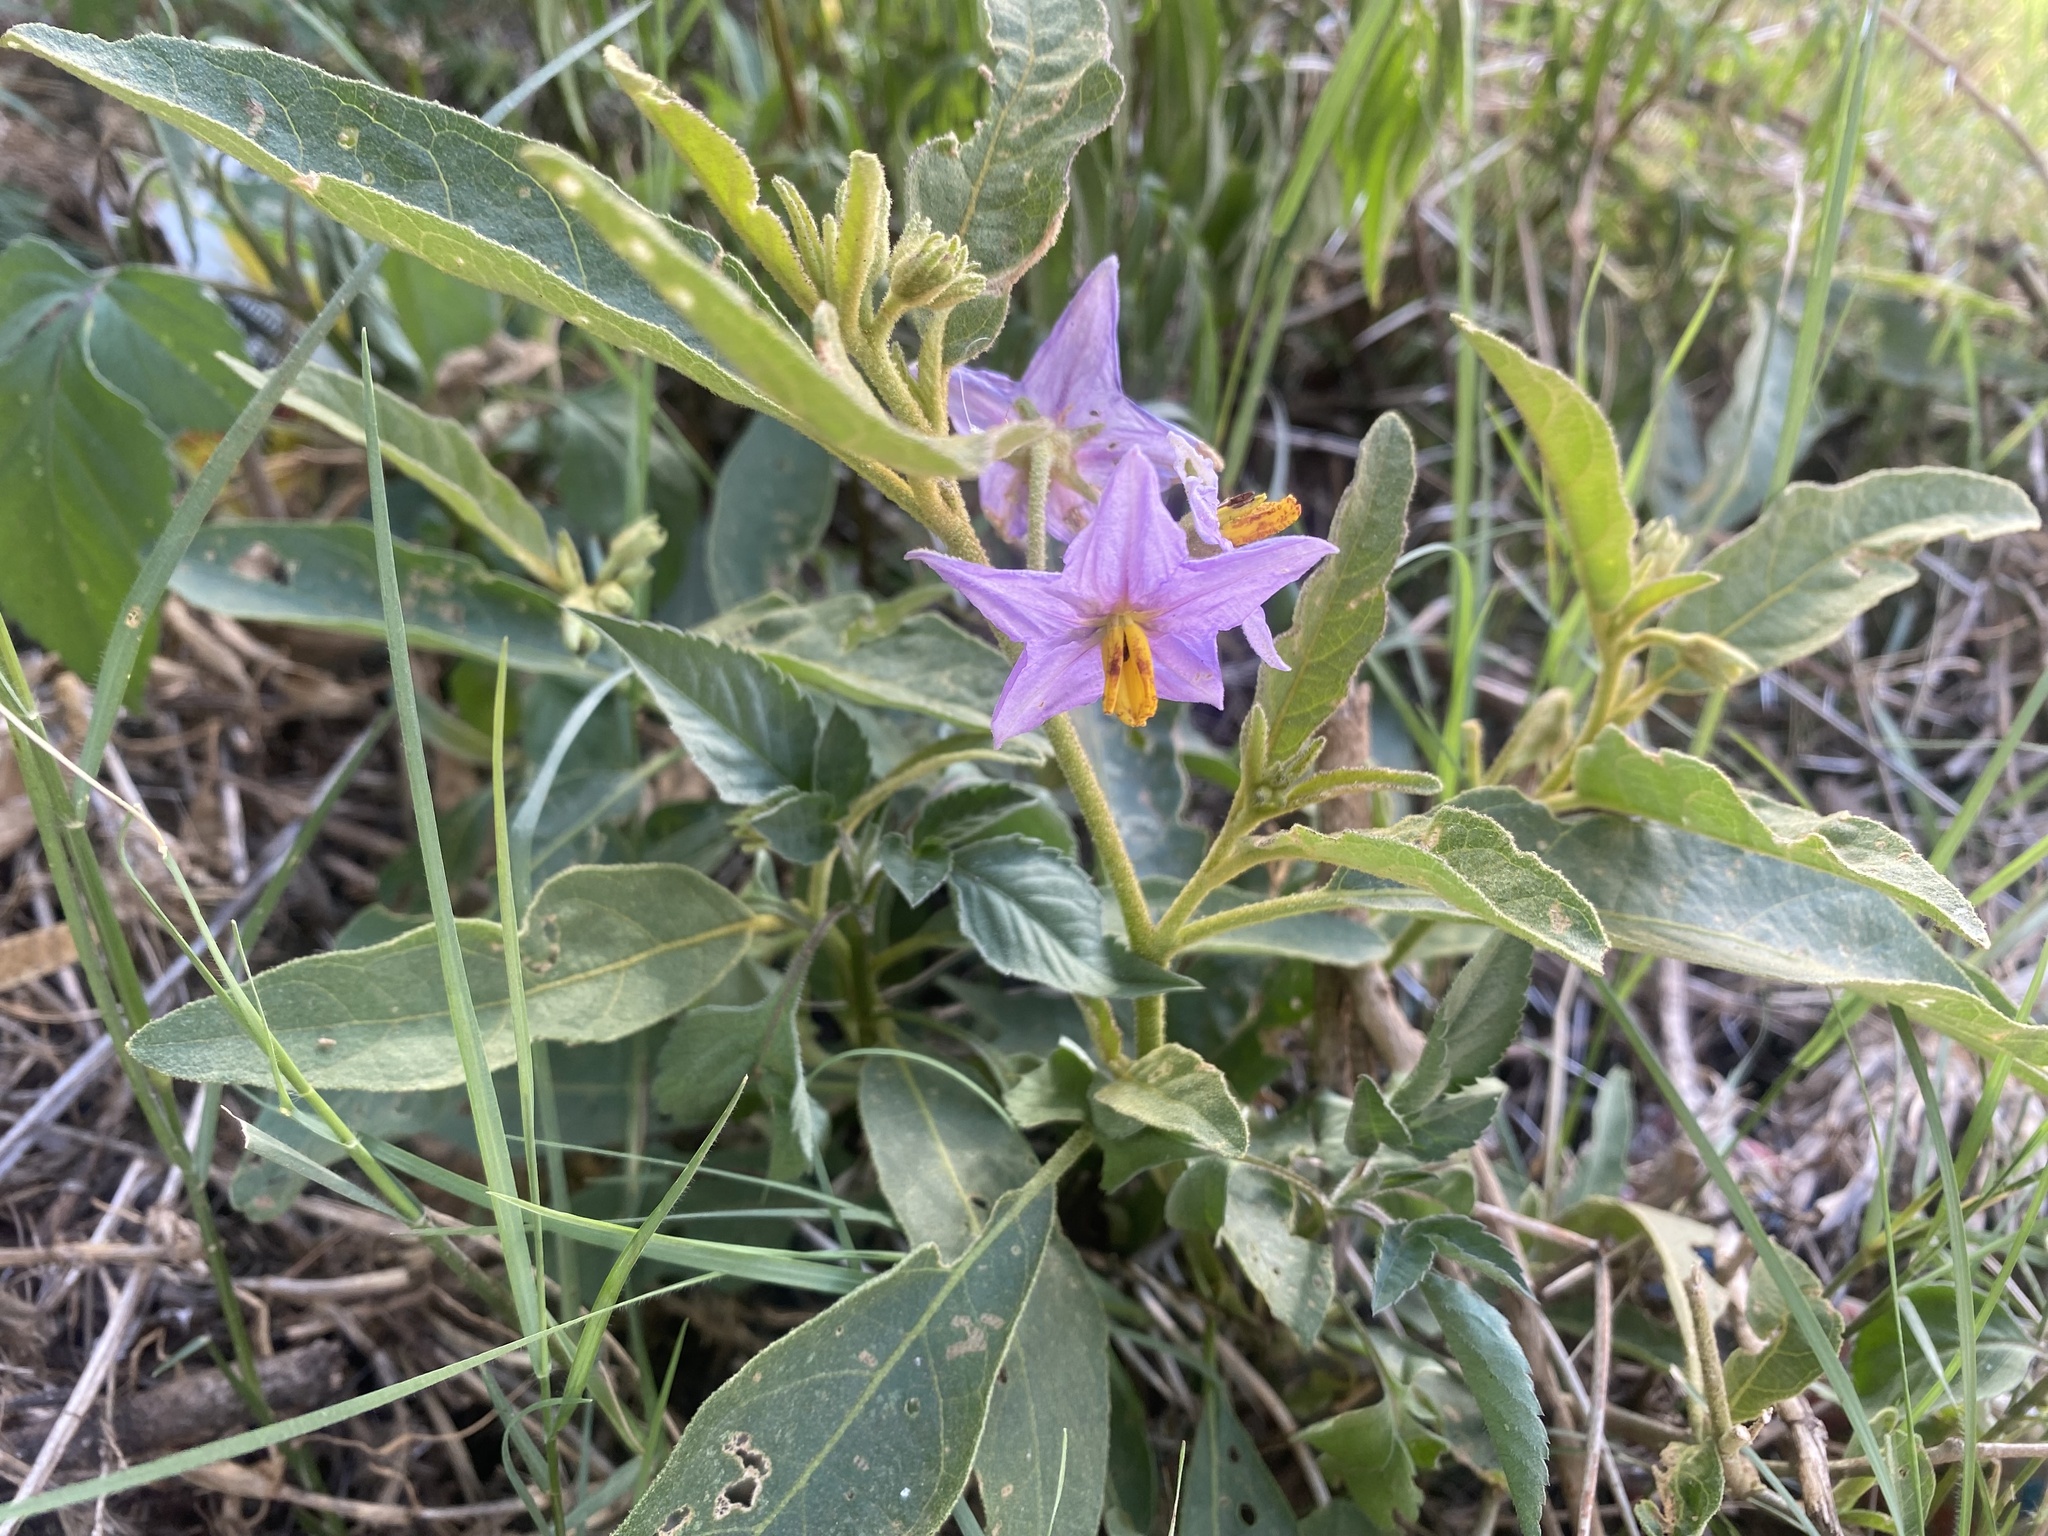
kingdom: Plantae
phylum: Tracheophyta
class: Magnoliopsida
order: Solanales
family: Solanaceae
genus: Solanum
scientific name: Solanum campylacanthum
